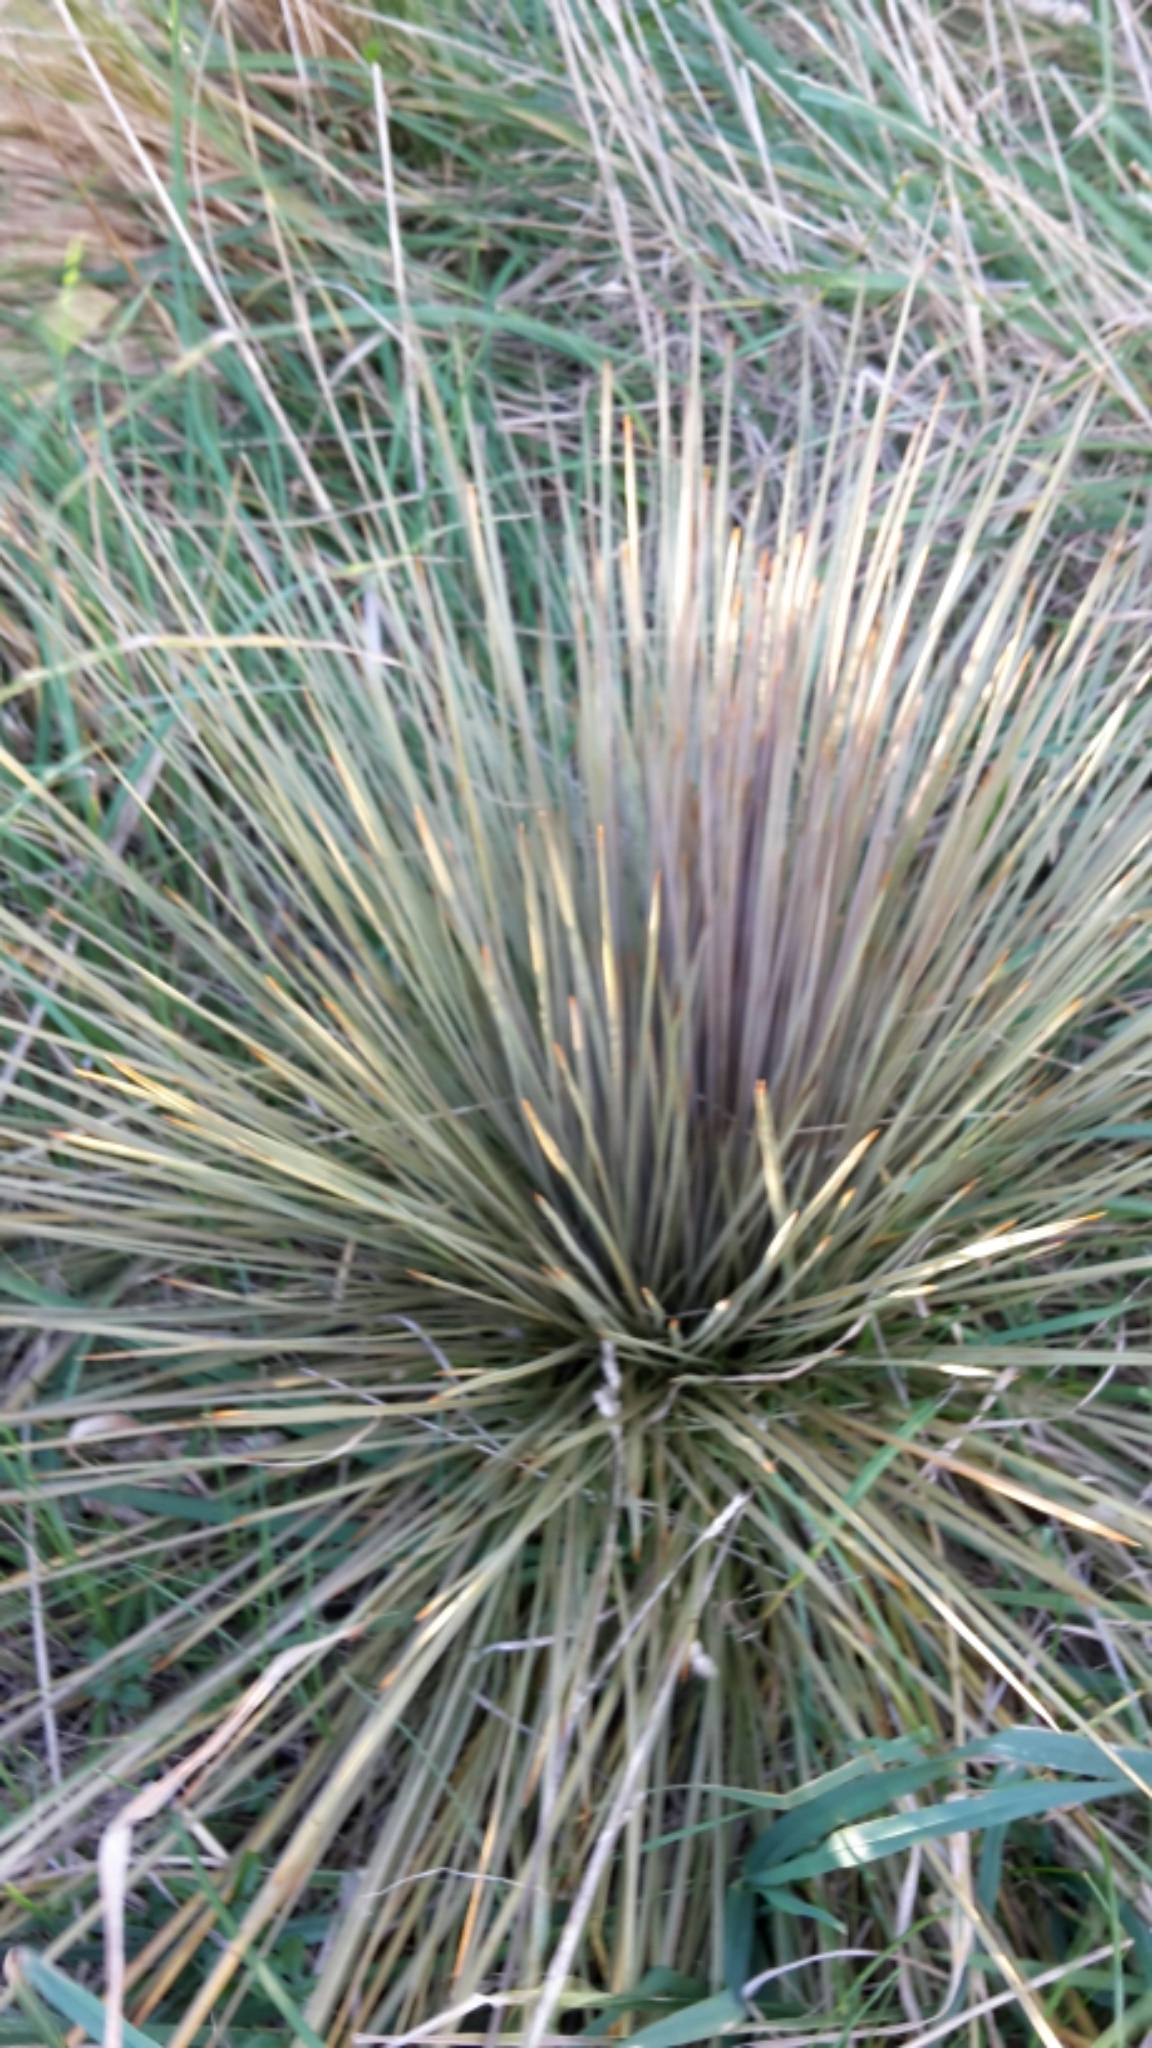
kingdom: Plantae
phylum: Tracheophyta
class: Magnoliopsida
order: Apiales
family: Apiaceae
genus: Aciphylla
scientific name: Aciphylla subflabellata
